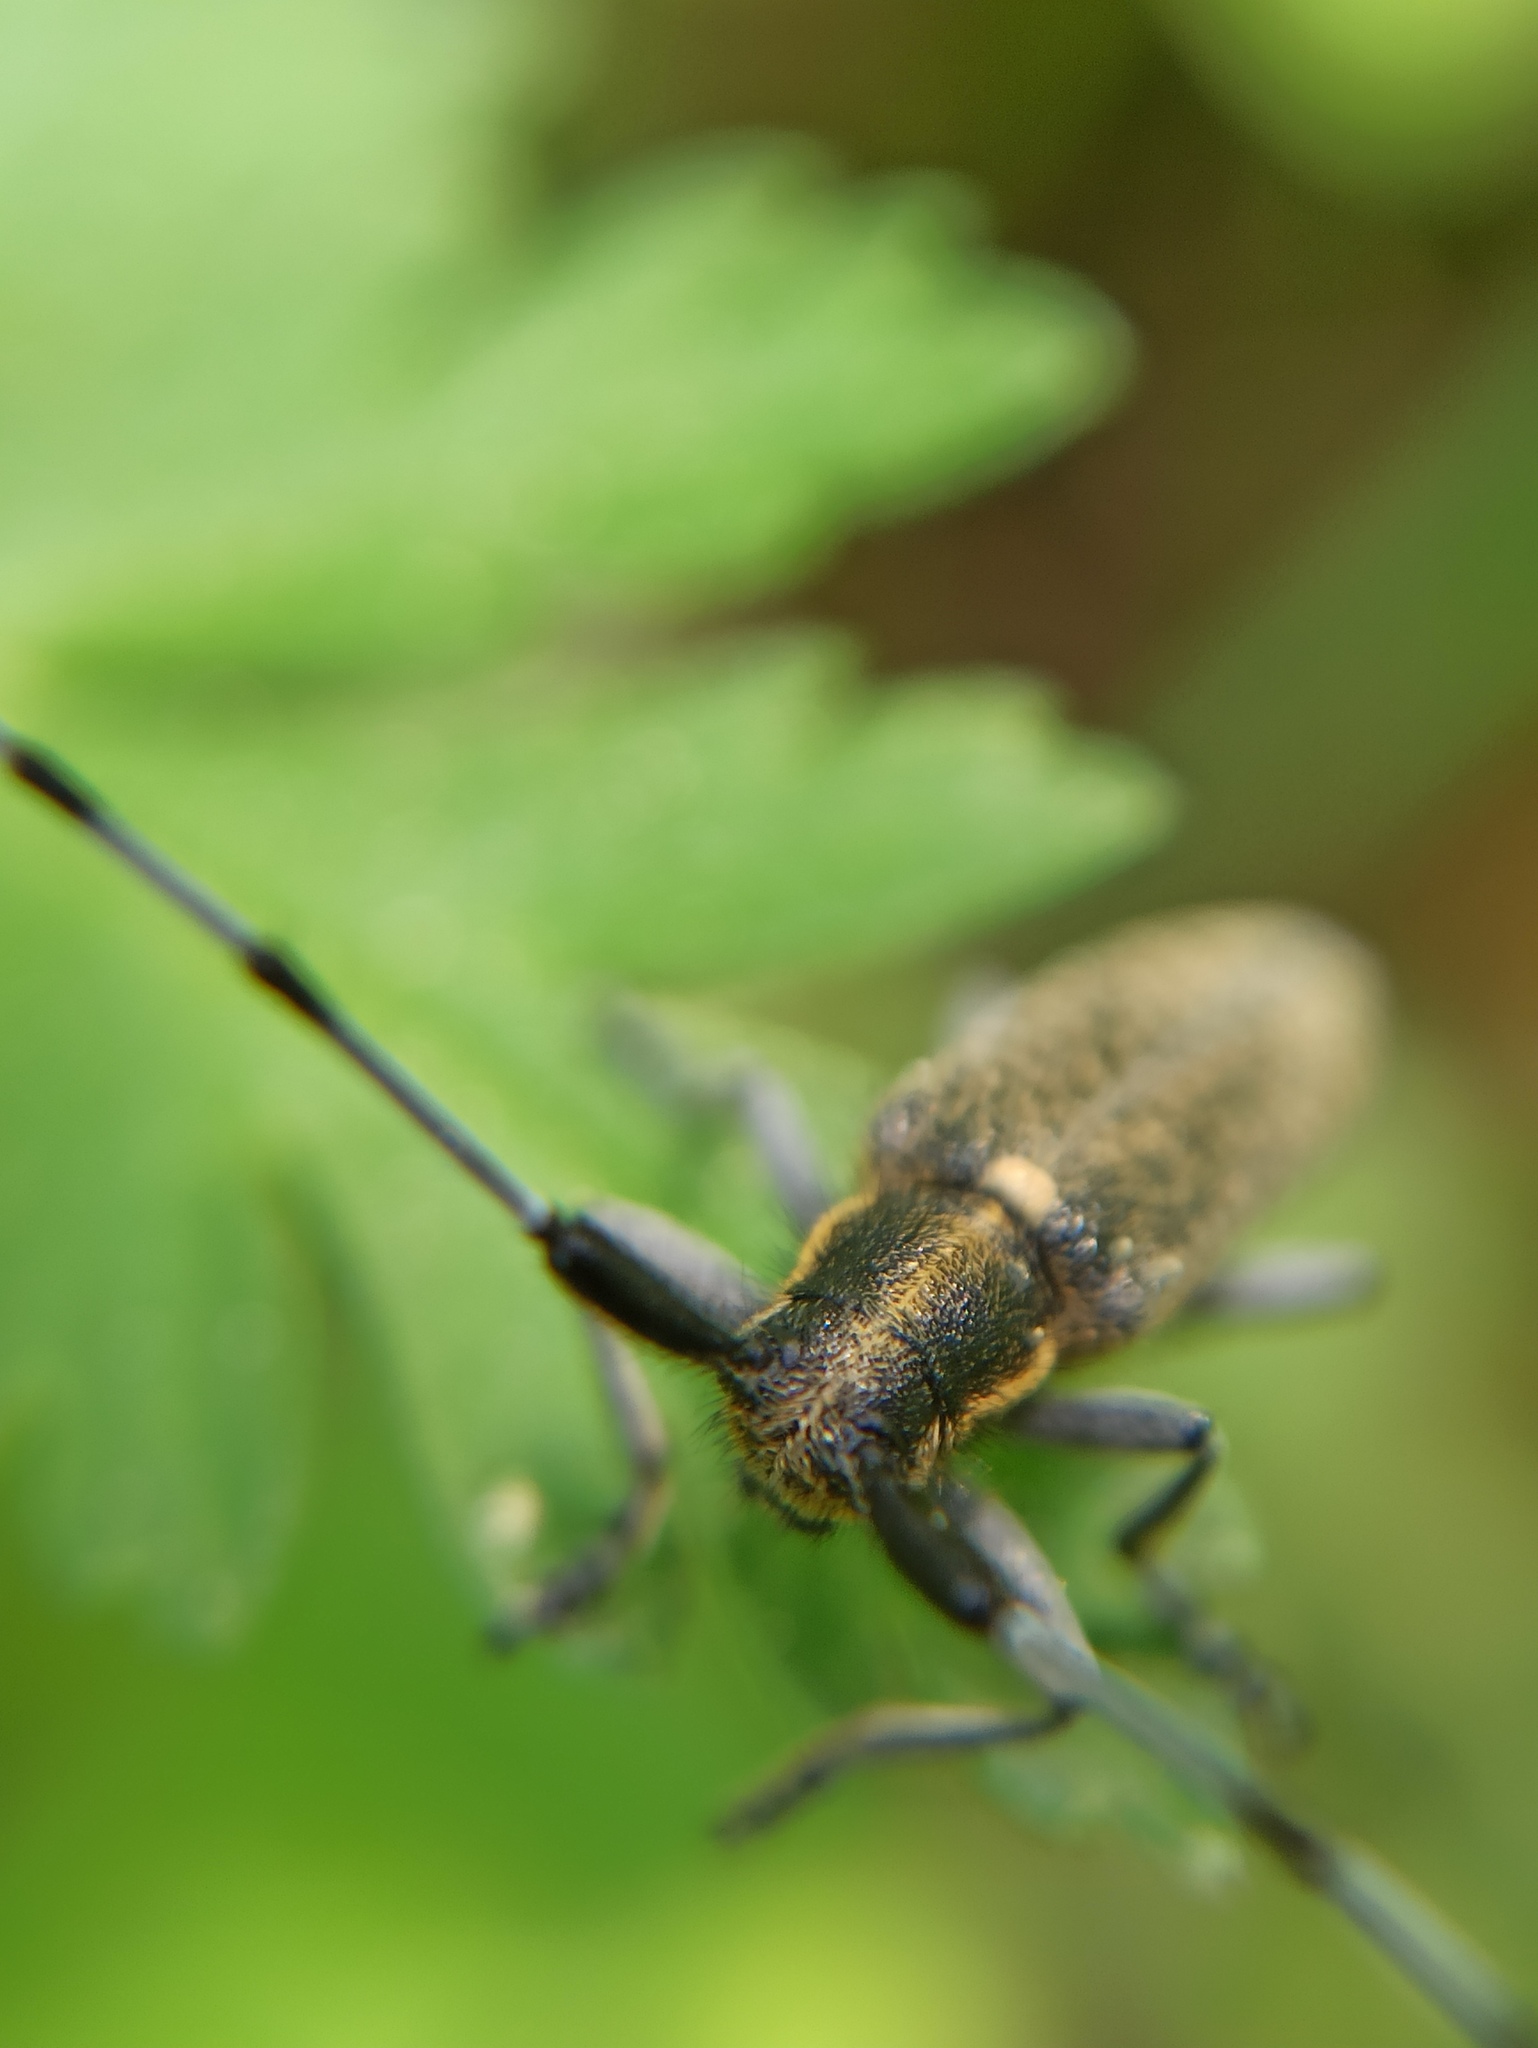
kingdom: Animalia
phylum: Arthropoda
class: Insecta
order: Coleoptera
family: Cerambycidae
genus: Agapanthia
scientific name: Agapanthia villosoviridescens
